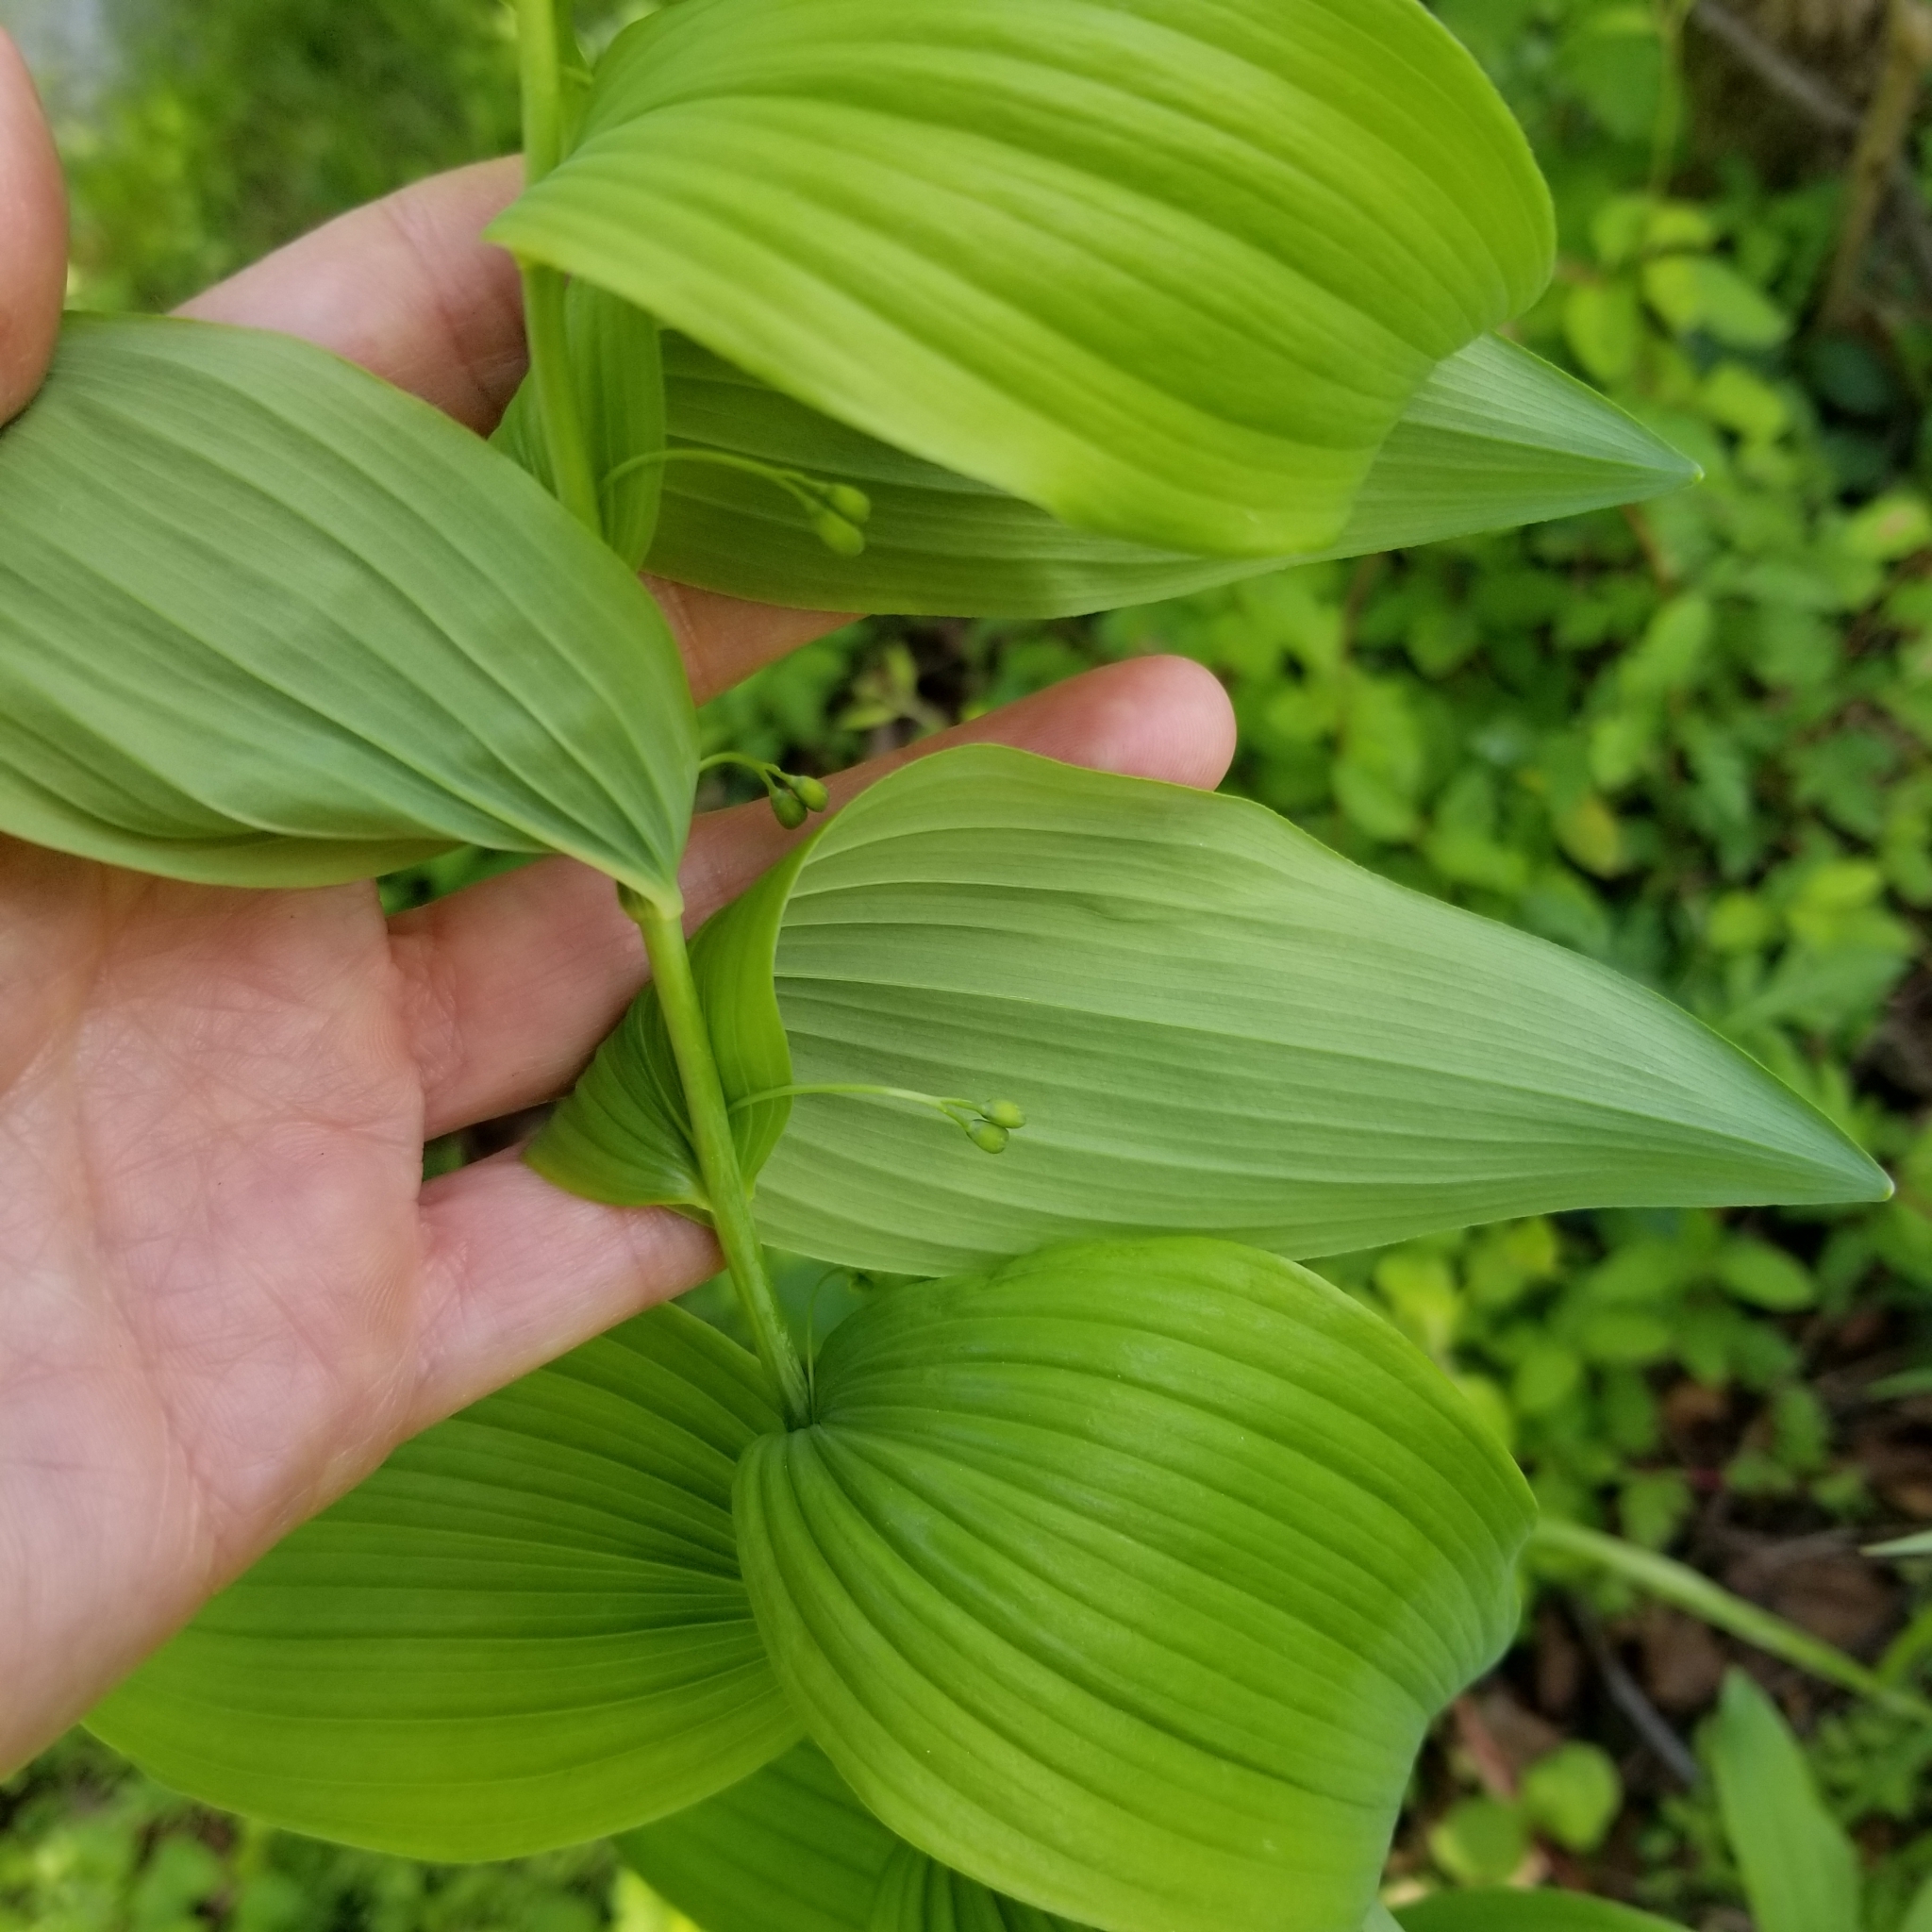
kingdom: Plantae
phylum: Tracheophyta
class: Liliopsida
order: Asparagales
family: Asparagaceae
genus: Polygonatum
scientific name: Polygonatum biflorum
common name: American solomon's-seal
